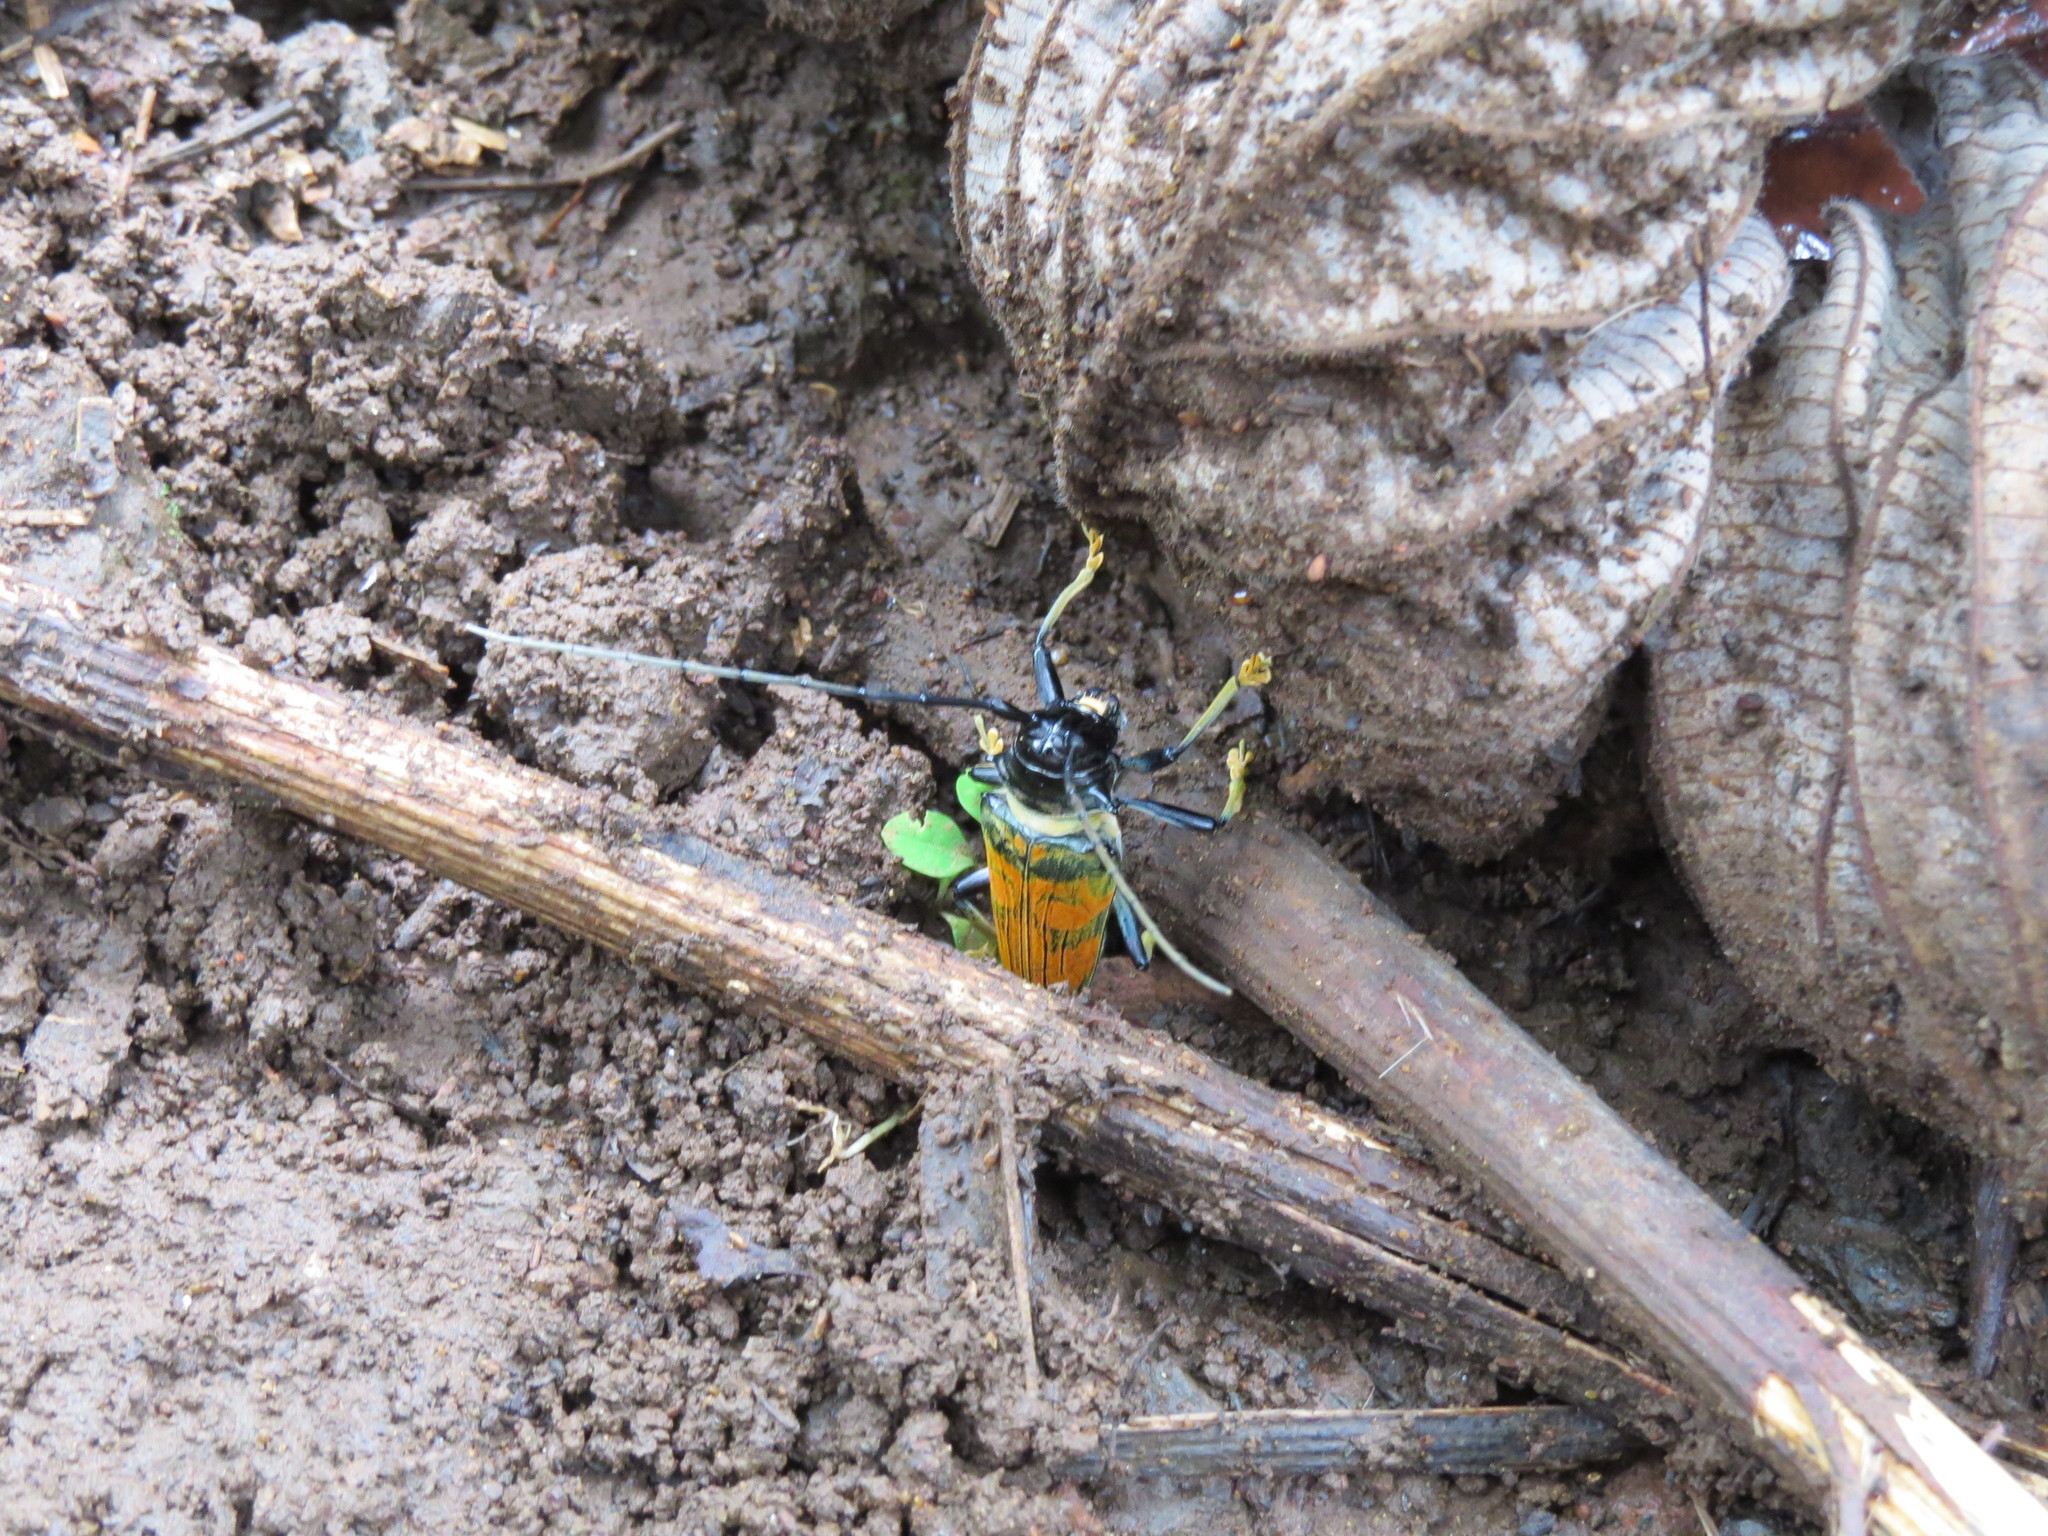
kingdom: Animalia
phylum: Arthropoda
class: Insecta
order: Coleoptera
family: Cerambycidae
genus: Sternotomis
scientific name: Sternotomis rufozonata
